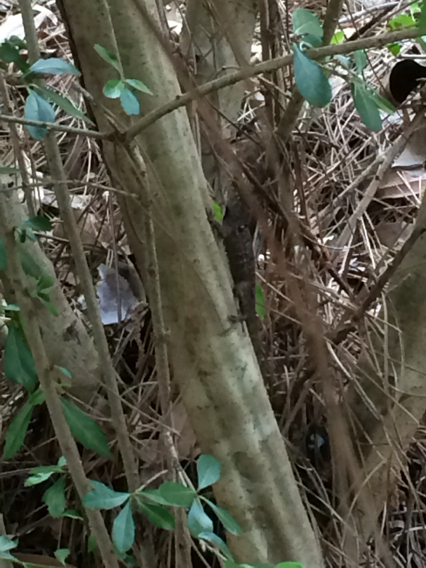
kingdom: Animalia
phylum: Chordata
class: Squamata
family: Dactyloidae
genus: Anolis
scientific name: Anolis sagrei
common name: Brown anole
